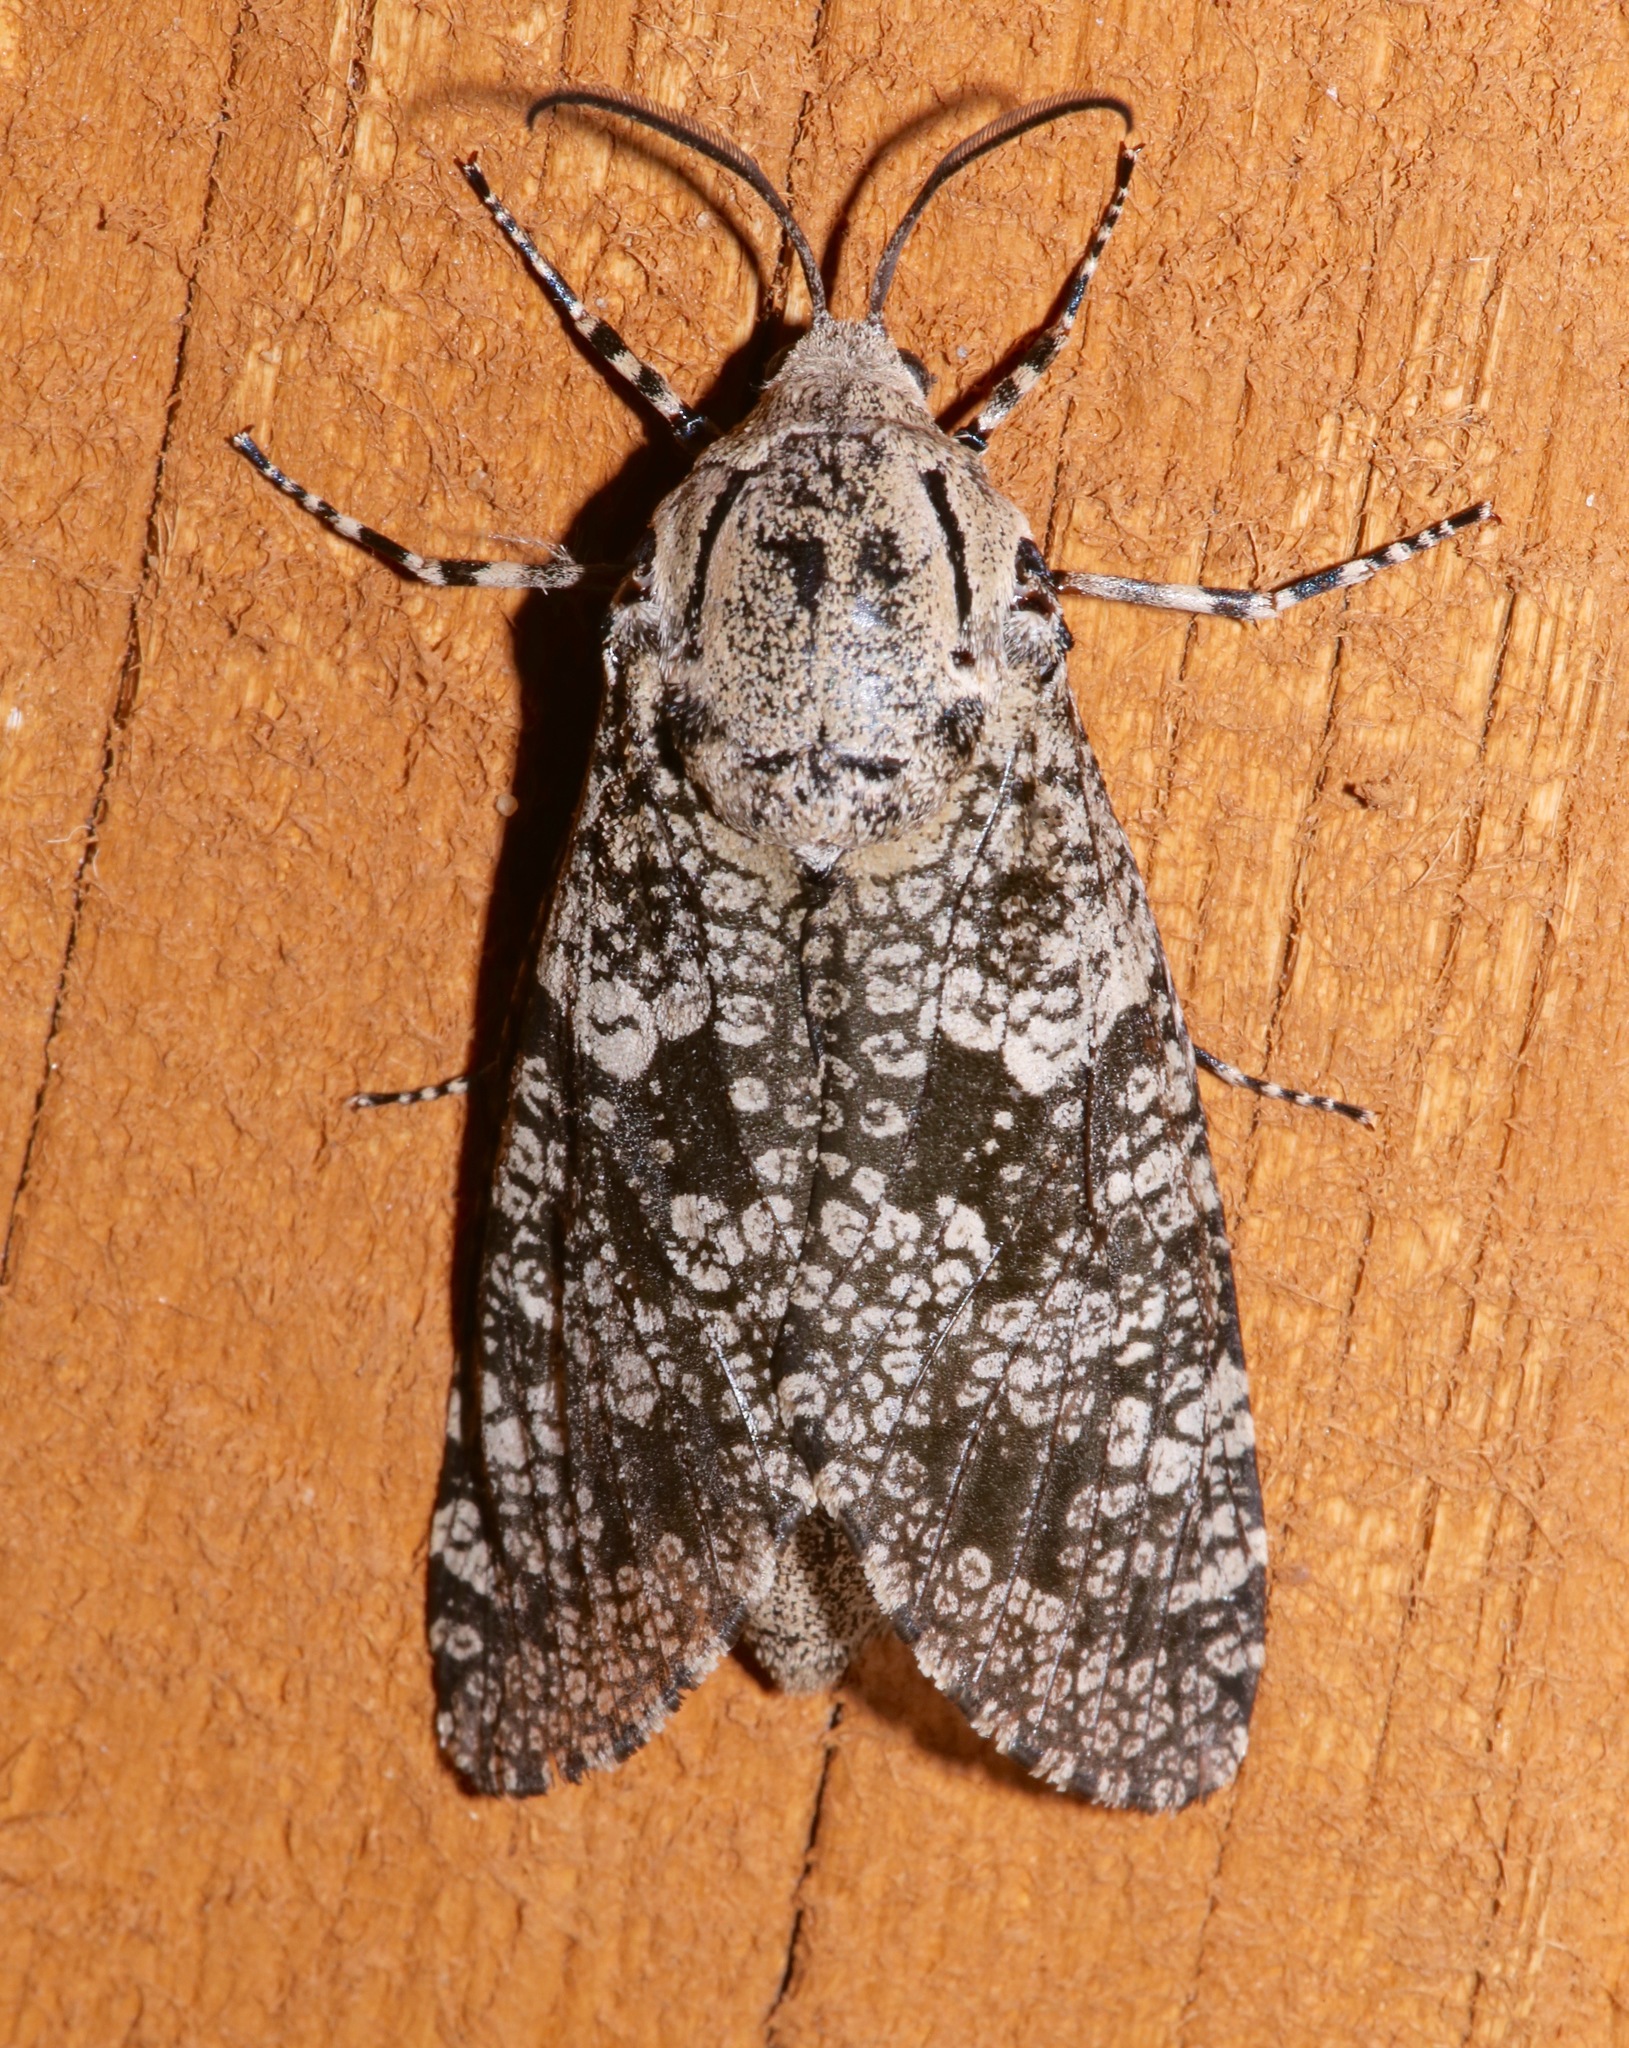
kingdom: Animalia
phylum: Arthropoda
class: Insecta
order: Lepidoptera
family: Cossidae
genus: Prionoxystus
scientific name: Prionoxystus robiniae
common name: Carpenterworm
